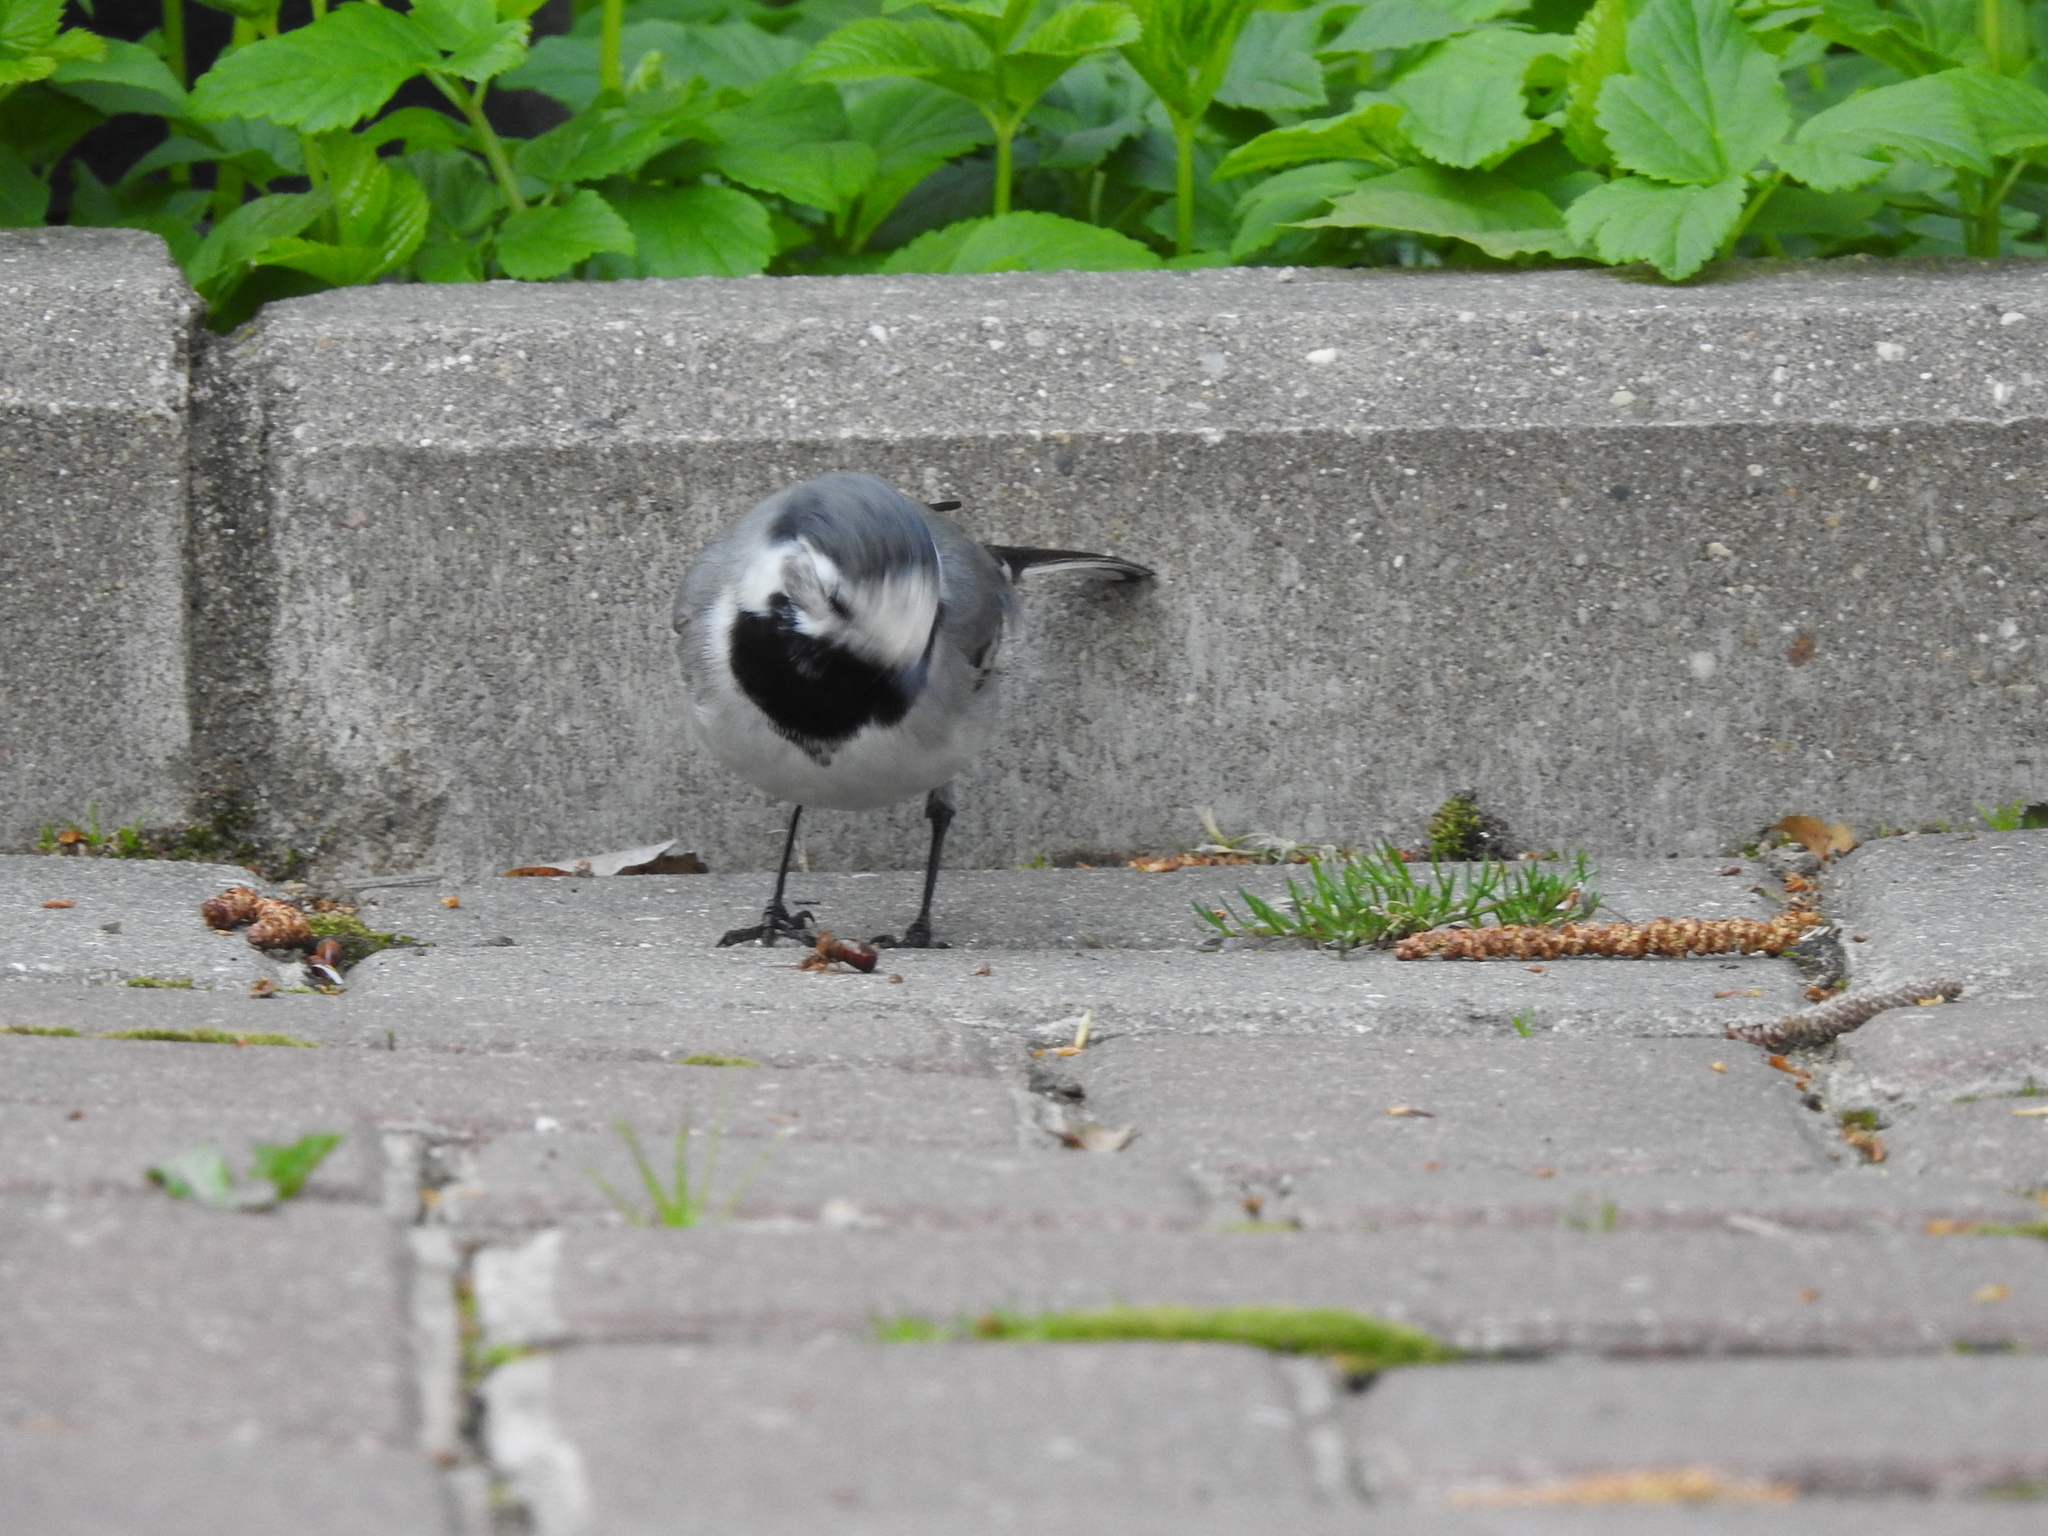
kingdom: Animalia
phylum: Chordata
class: Aves
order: Passeriformes
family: Motacillidae
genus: Motacilla
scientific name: Motacilla alba
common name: White wagtail
